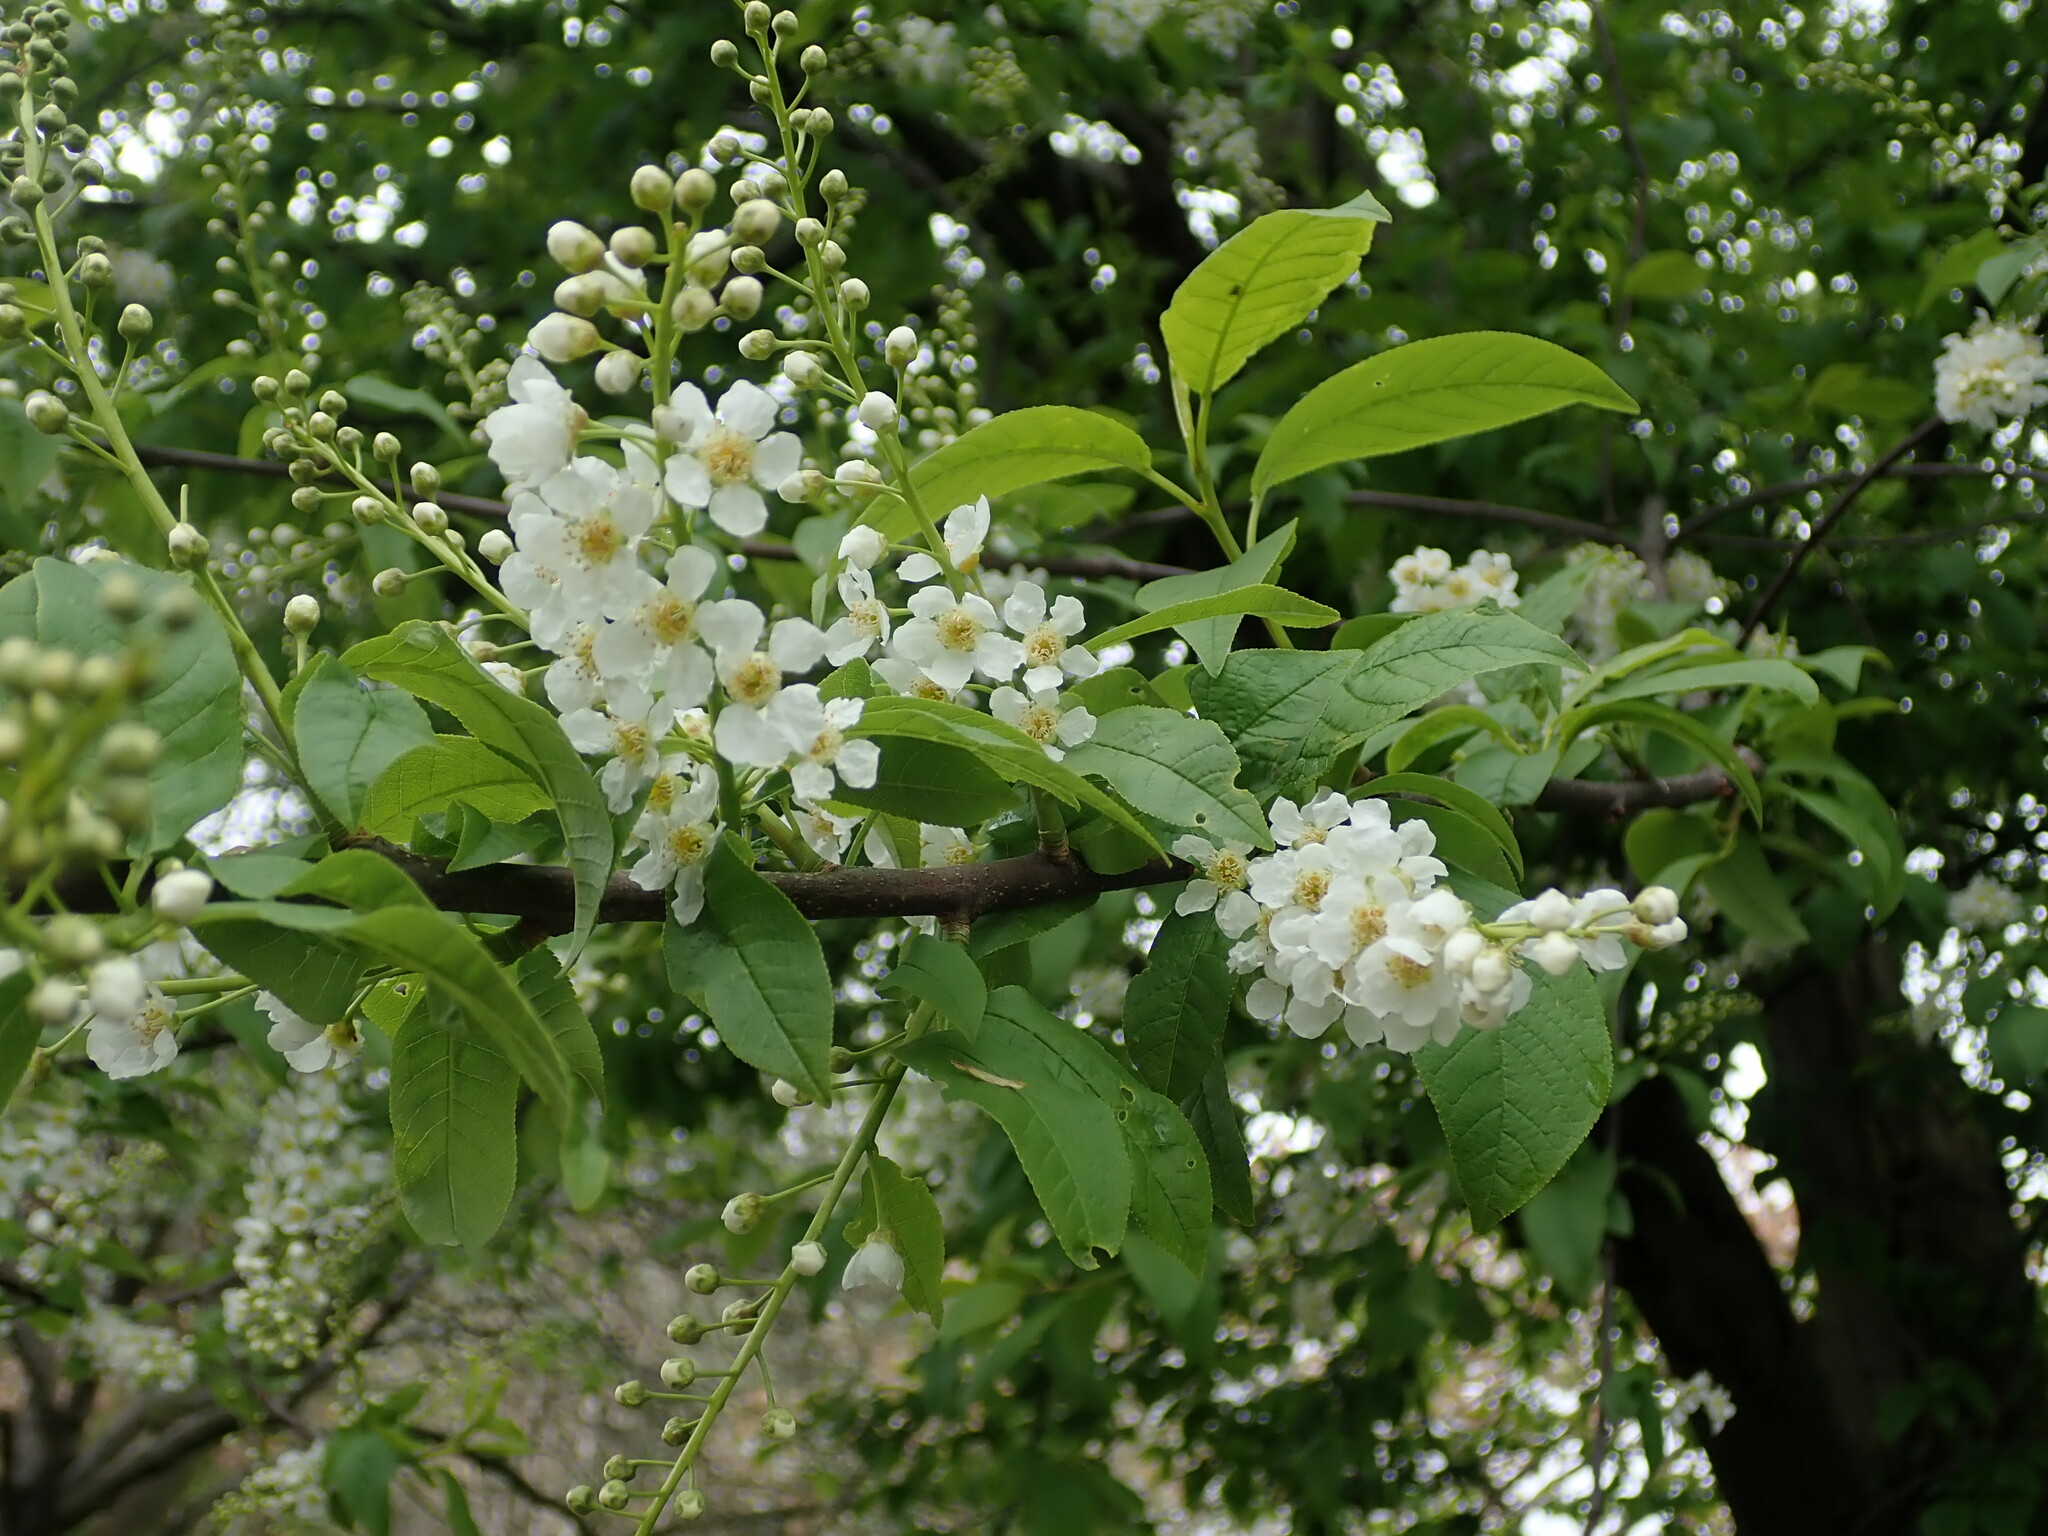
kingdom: Plantae
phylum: Tracheophyta
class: Magnoliopsida
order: Rosales
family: Rosaceae
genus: Prunus
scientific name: Prunus padus
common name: Bird cherry
